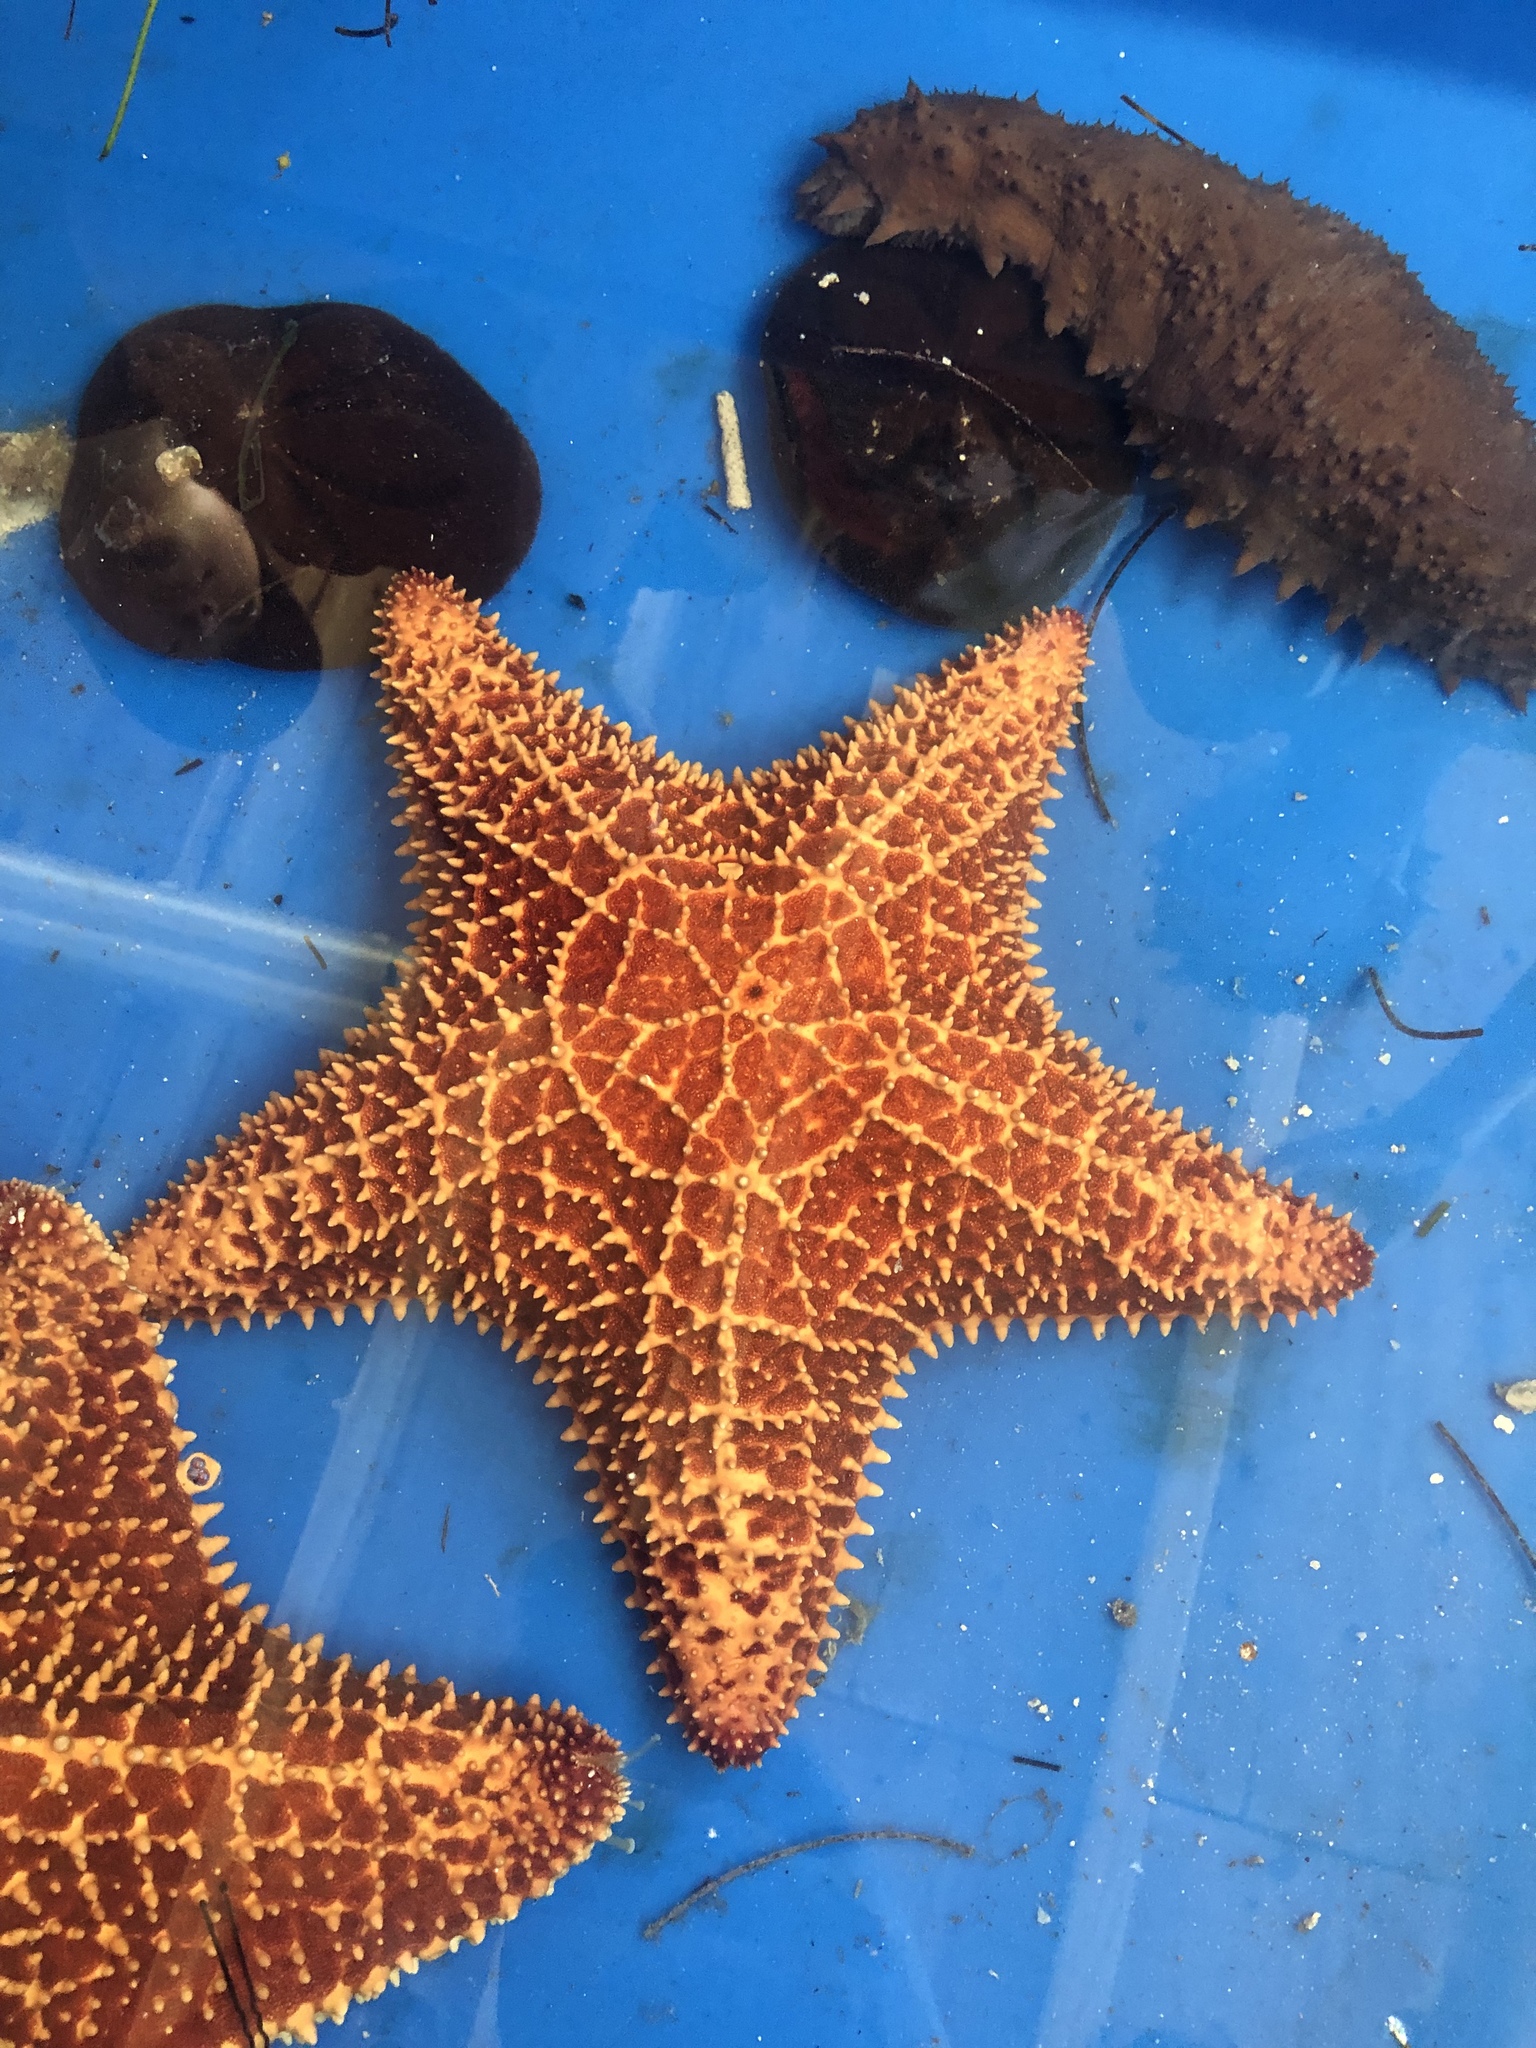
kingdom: Animalia
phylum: Echinodermata
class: Asteroidea
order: Valvatida
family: Oreasteridae
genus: Oreaster
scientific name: Oreaster reticulatus
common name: Cushion sea star
